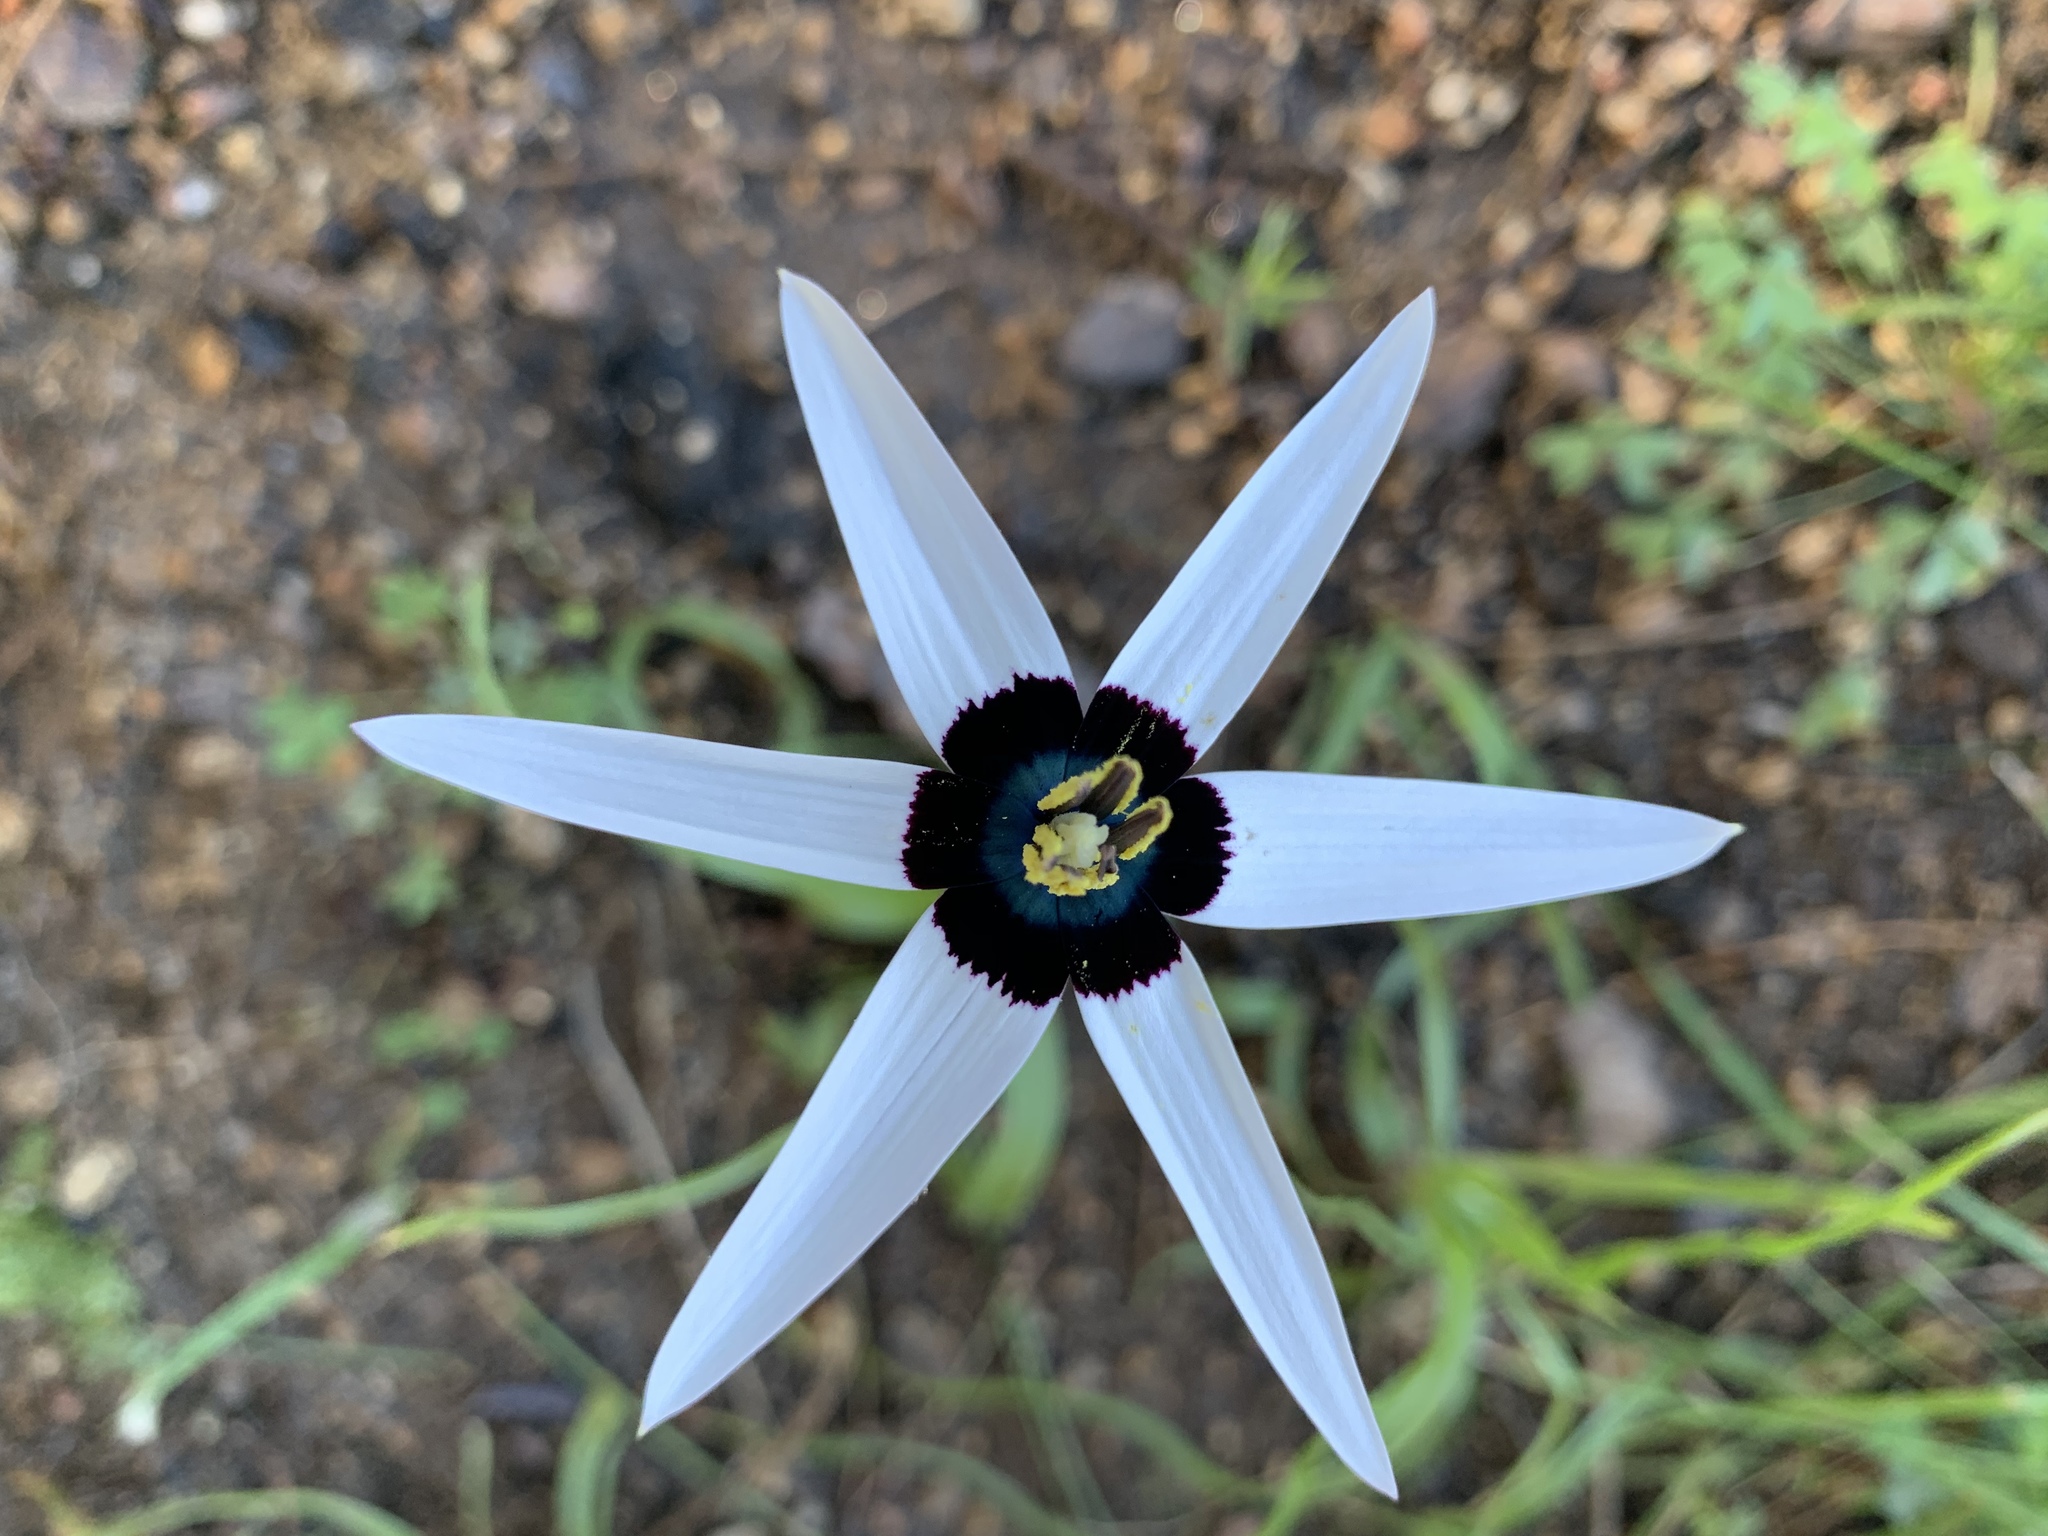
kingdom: Plantae
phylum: Tracheophyta
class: Liliopsida
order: Asparagales
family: Hypoxidaceae
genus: Pauridia
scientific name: Pauridia capensis
